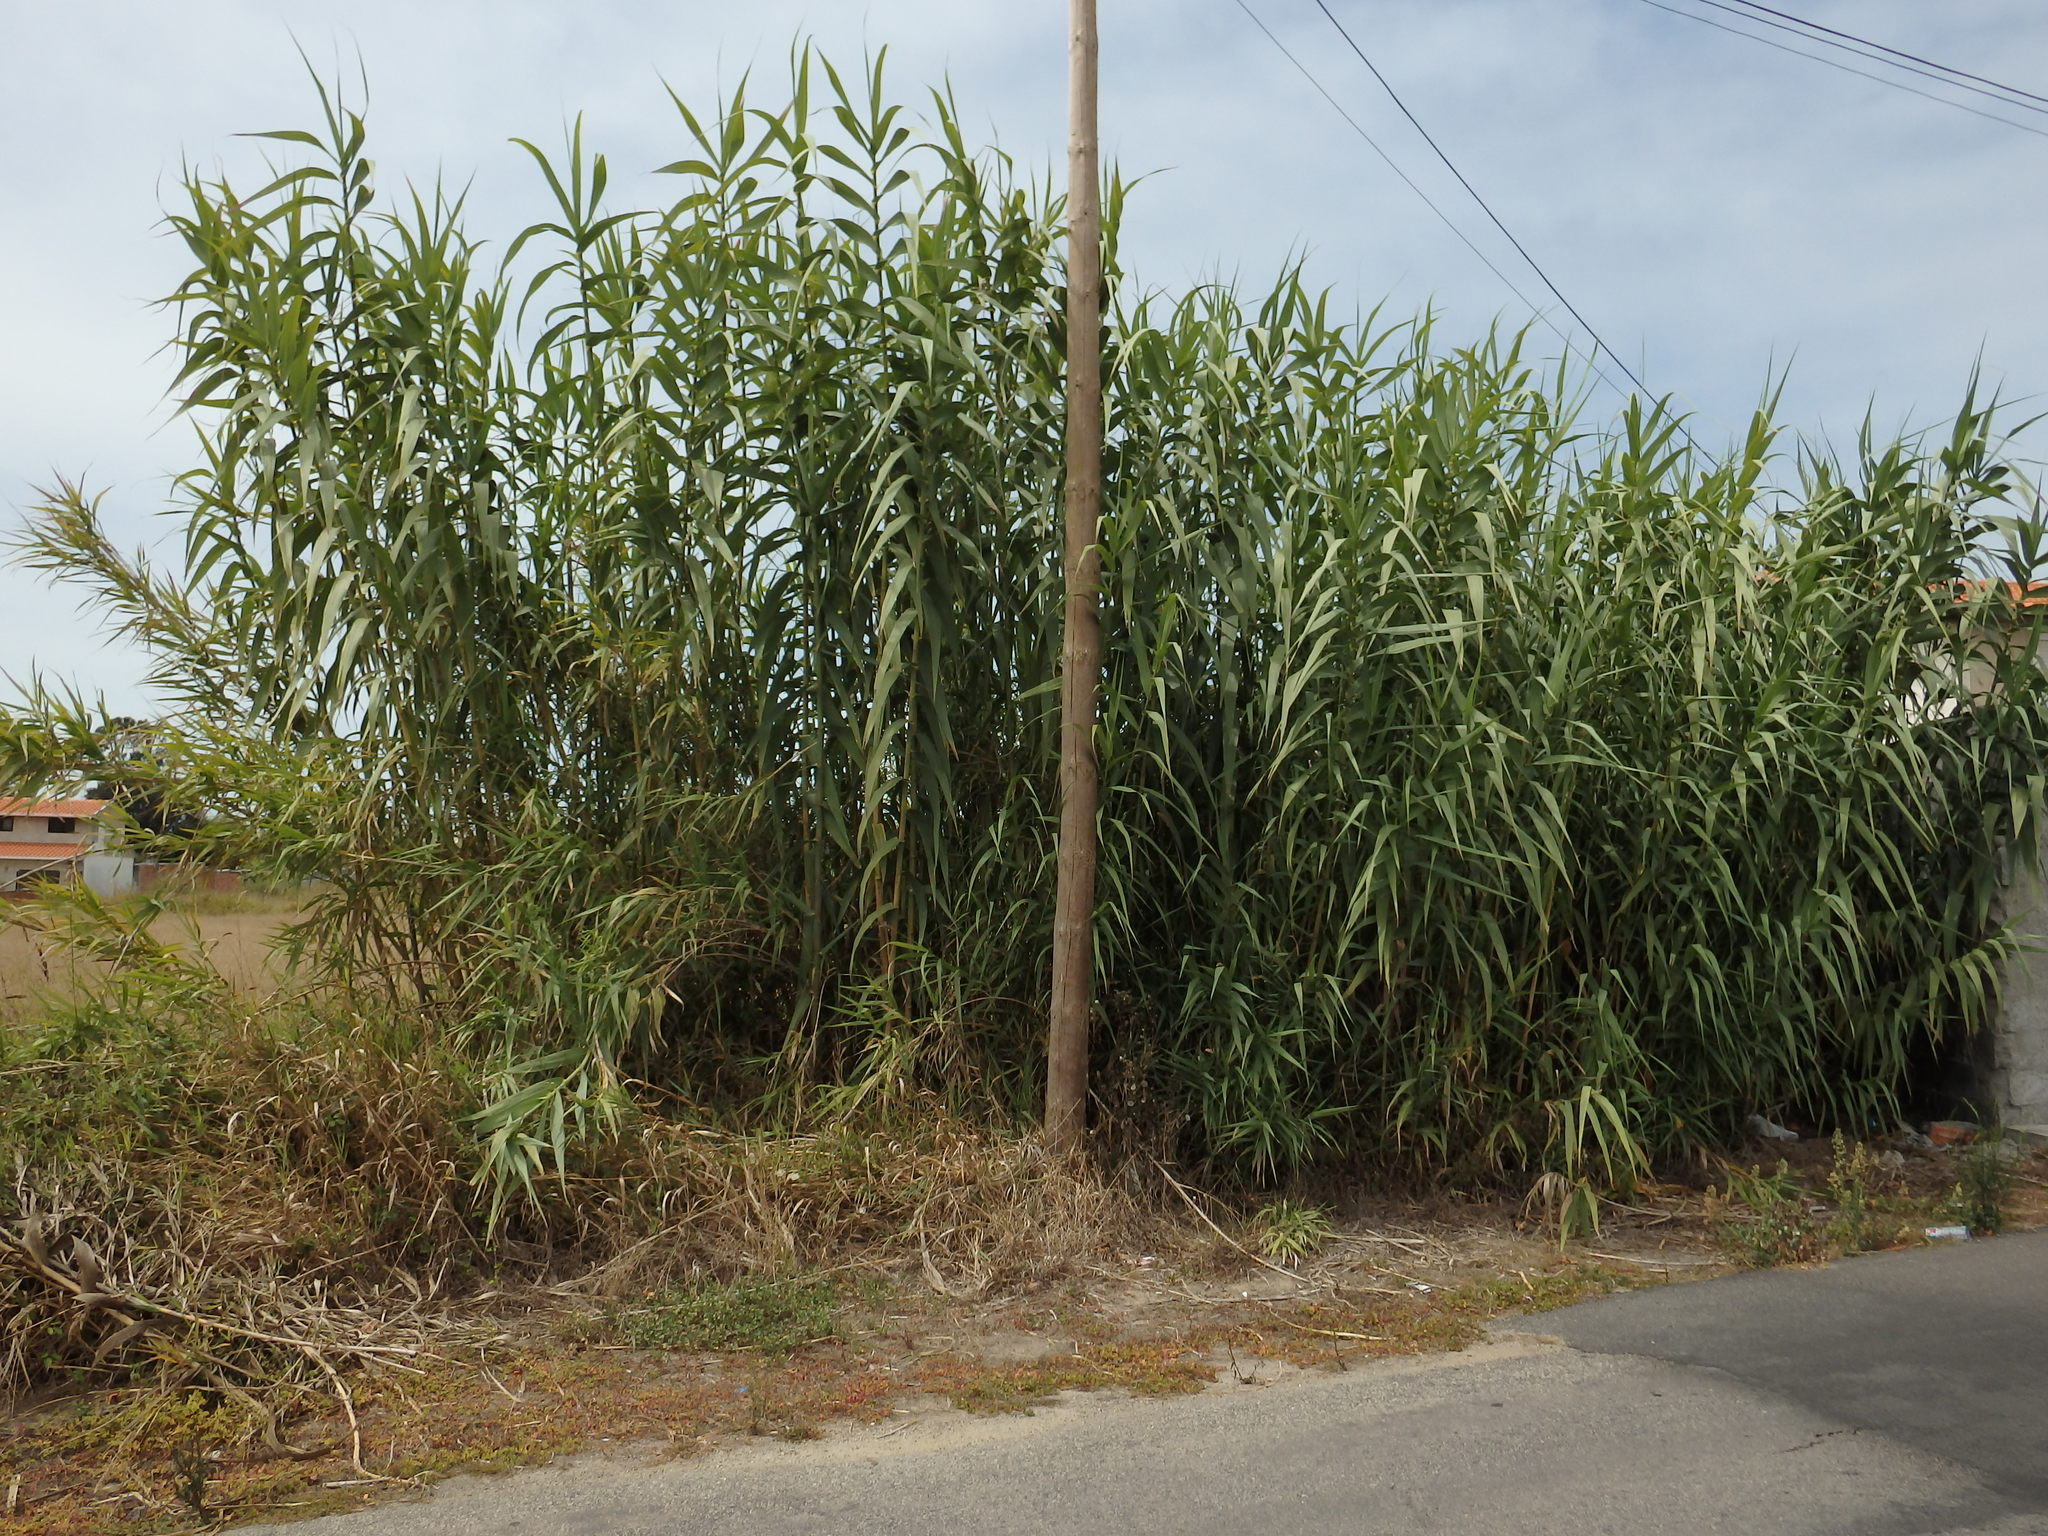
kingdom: Plantae
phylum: Tracheophyta
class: Liliopsida
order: Poales
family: Poaceae
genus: Arundo
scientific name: Arundo donax
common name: Giant reed
